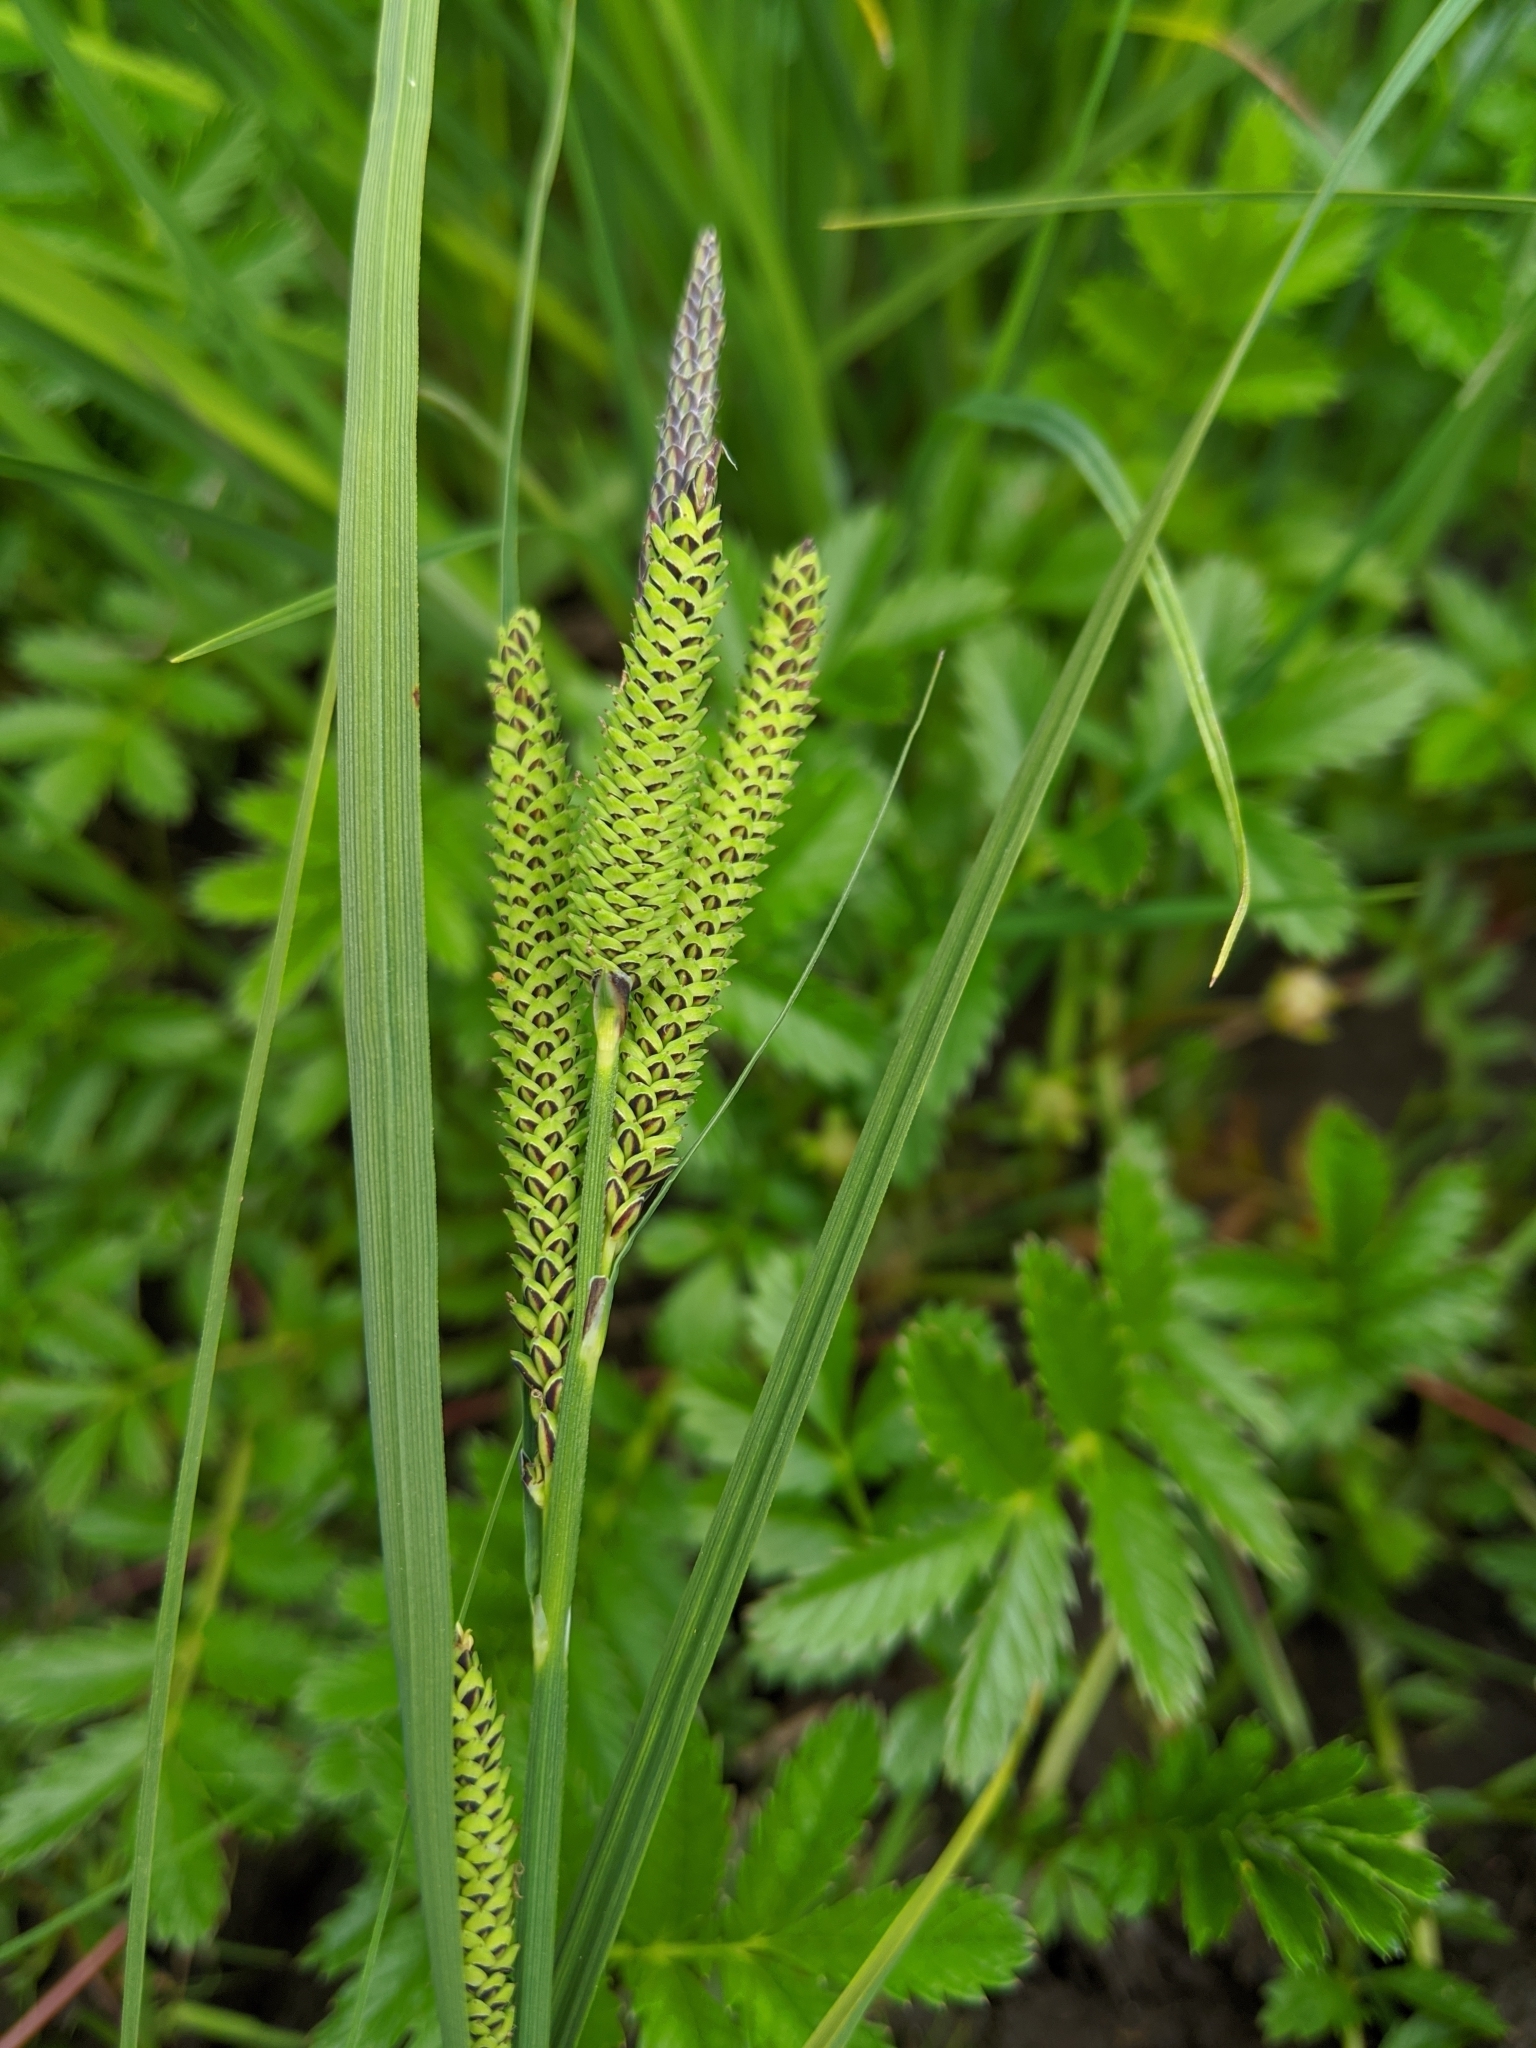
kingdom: Plantae
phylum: Tracheophyta
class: Liliopsida
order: Poales
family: Cyperaceae
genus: Carex
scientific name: Carex aquatilis
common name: Water sedge
